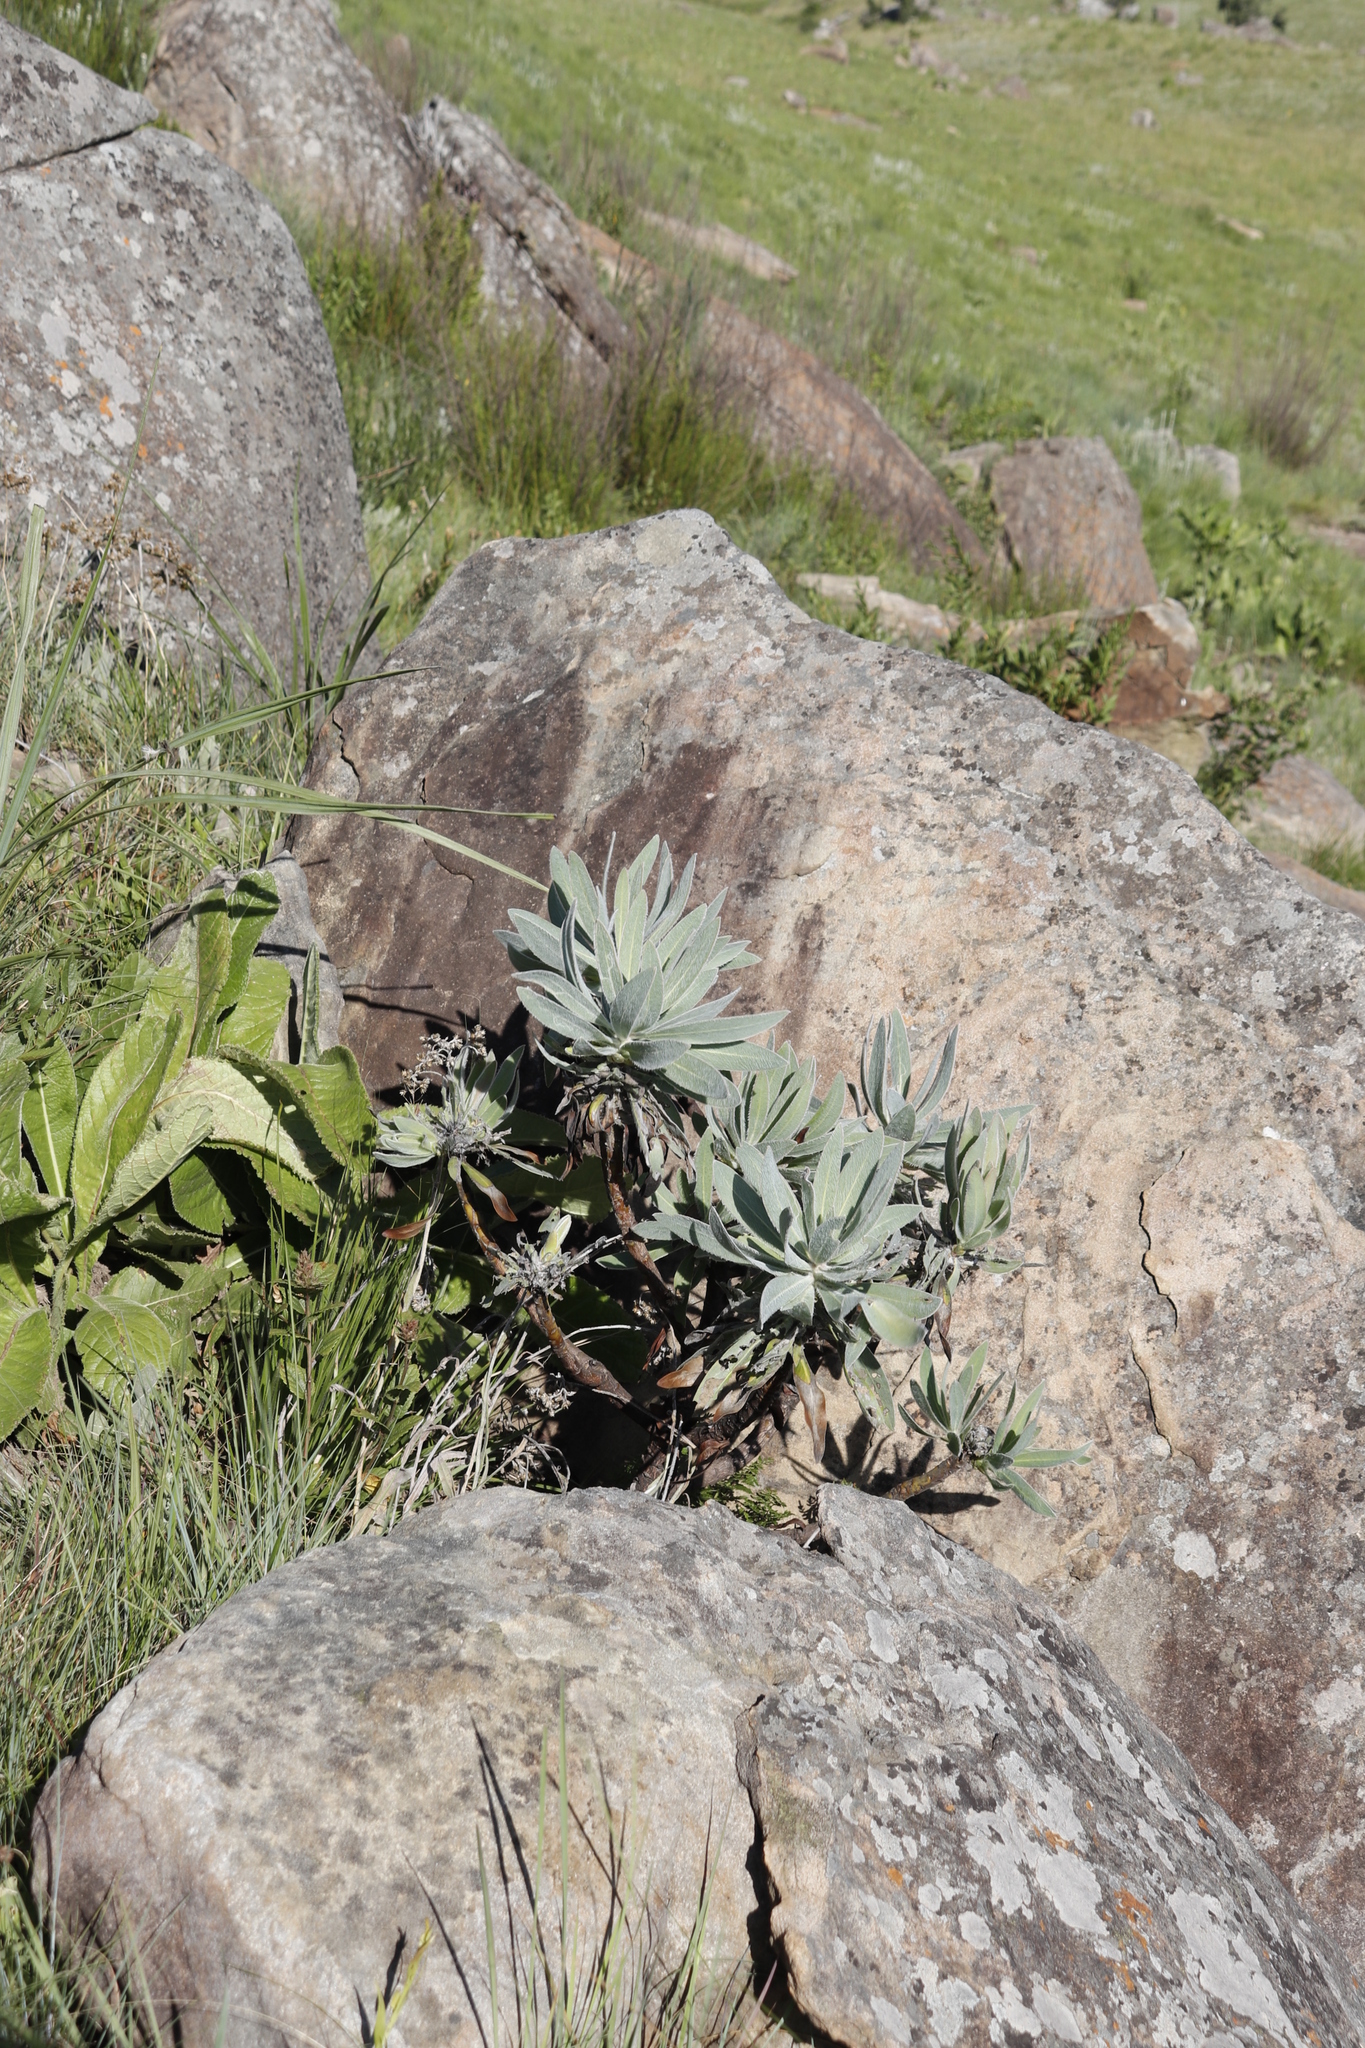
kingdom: Plantae
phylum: Tracheophyta
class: Magnoliopsida
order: Proteales
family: Proteaceae
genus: Protea
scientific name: Protea roupelliae
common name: Silver sugarbush
